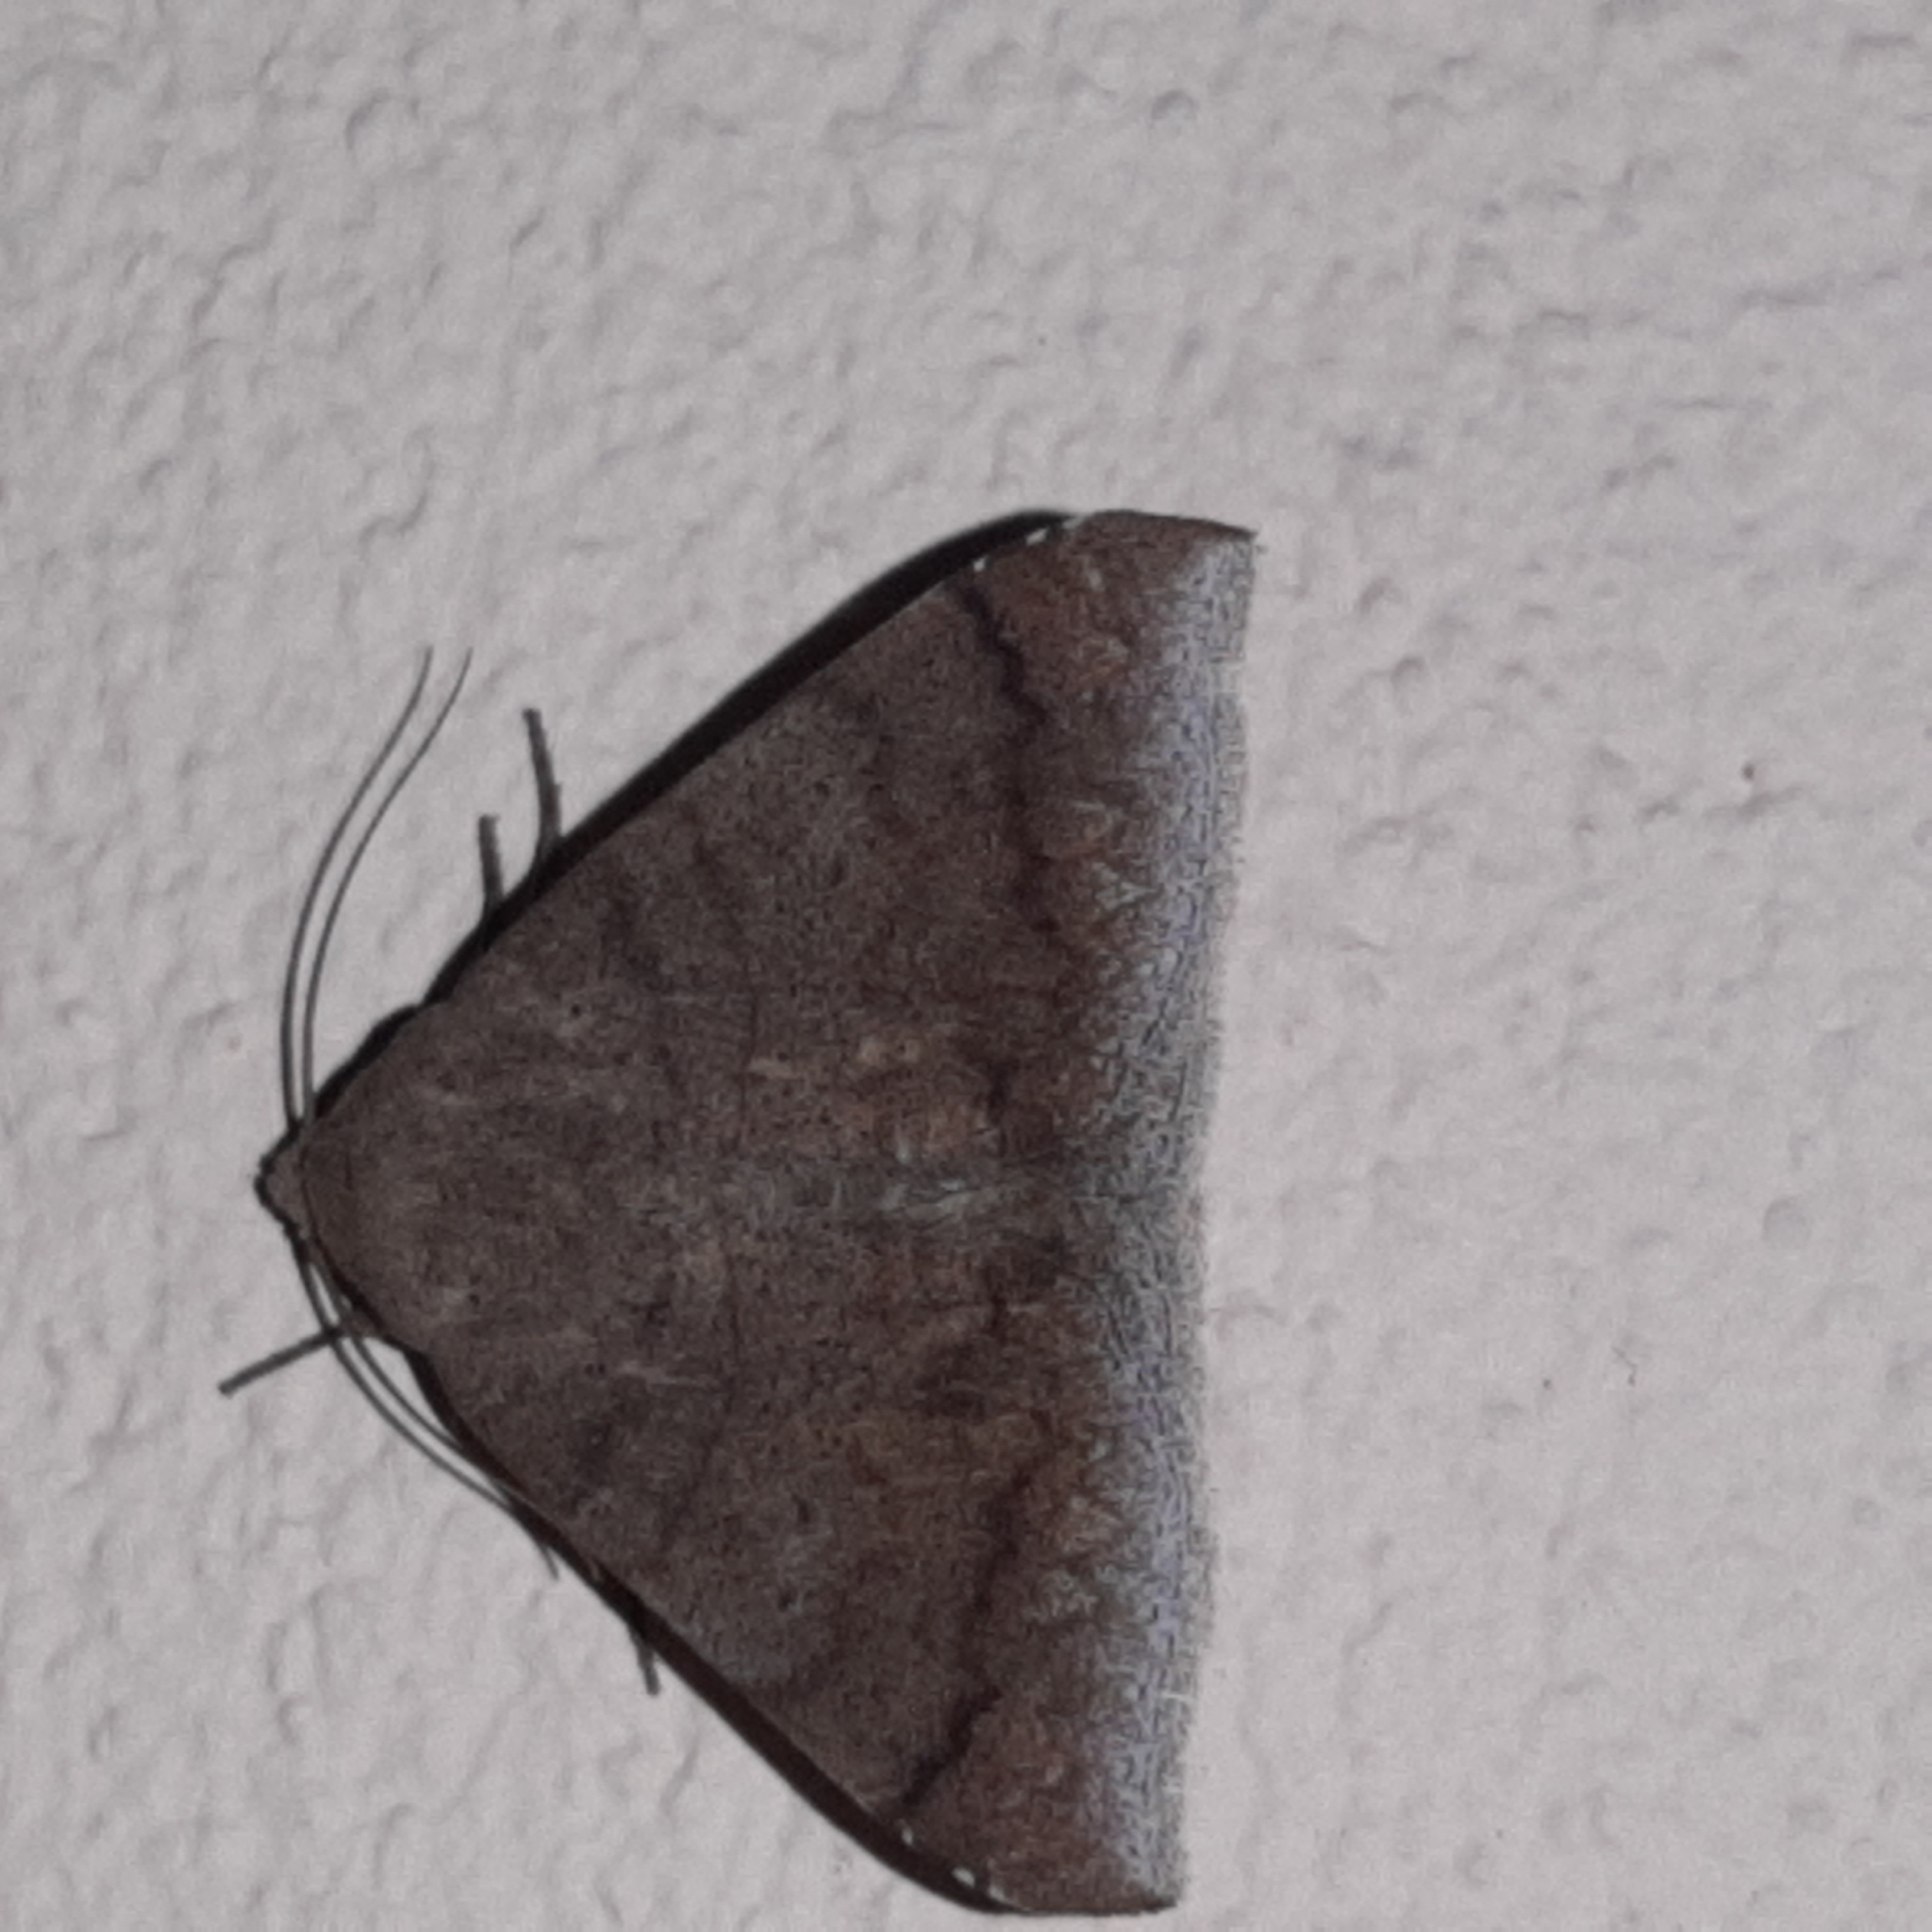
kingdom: Animalia
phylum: Arthropoda
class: Insecta
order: Lepidoptera
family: Erebidae
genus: Achaea
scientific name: Achaea Mimophisma delunaris
